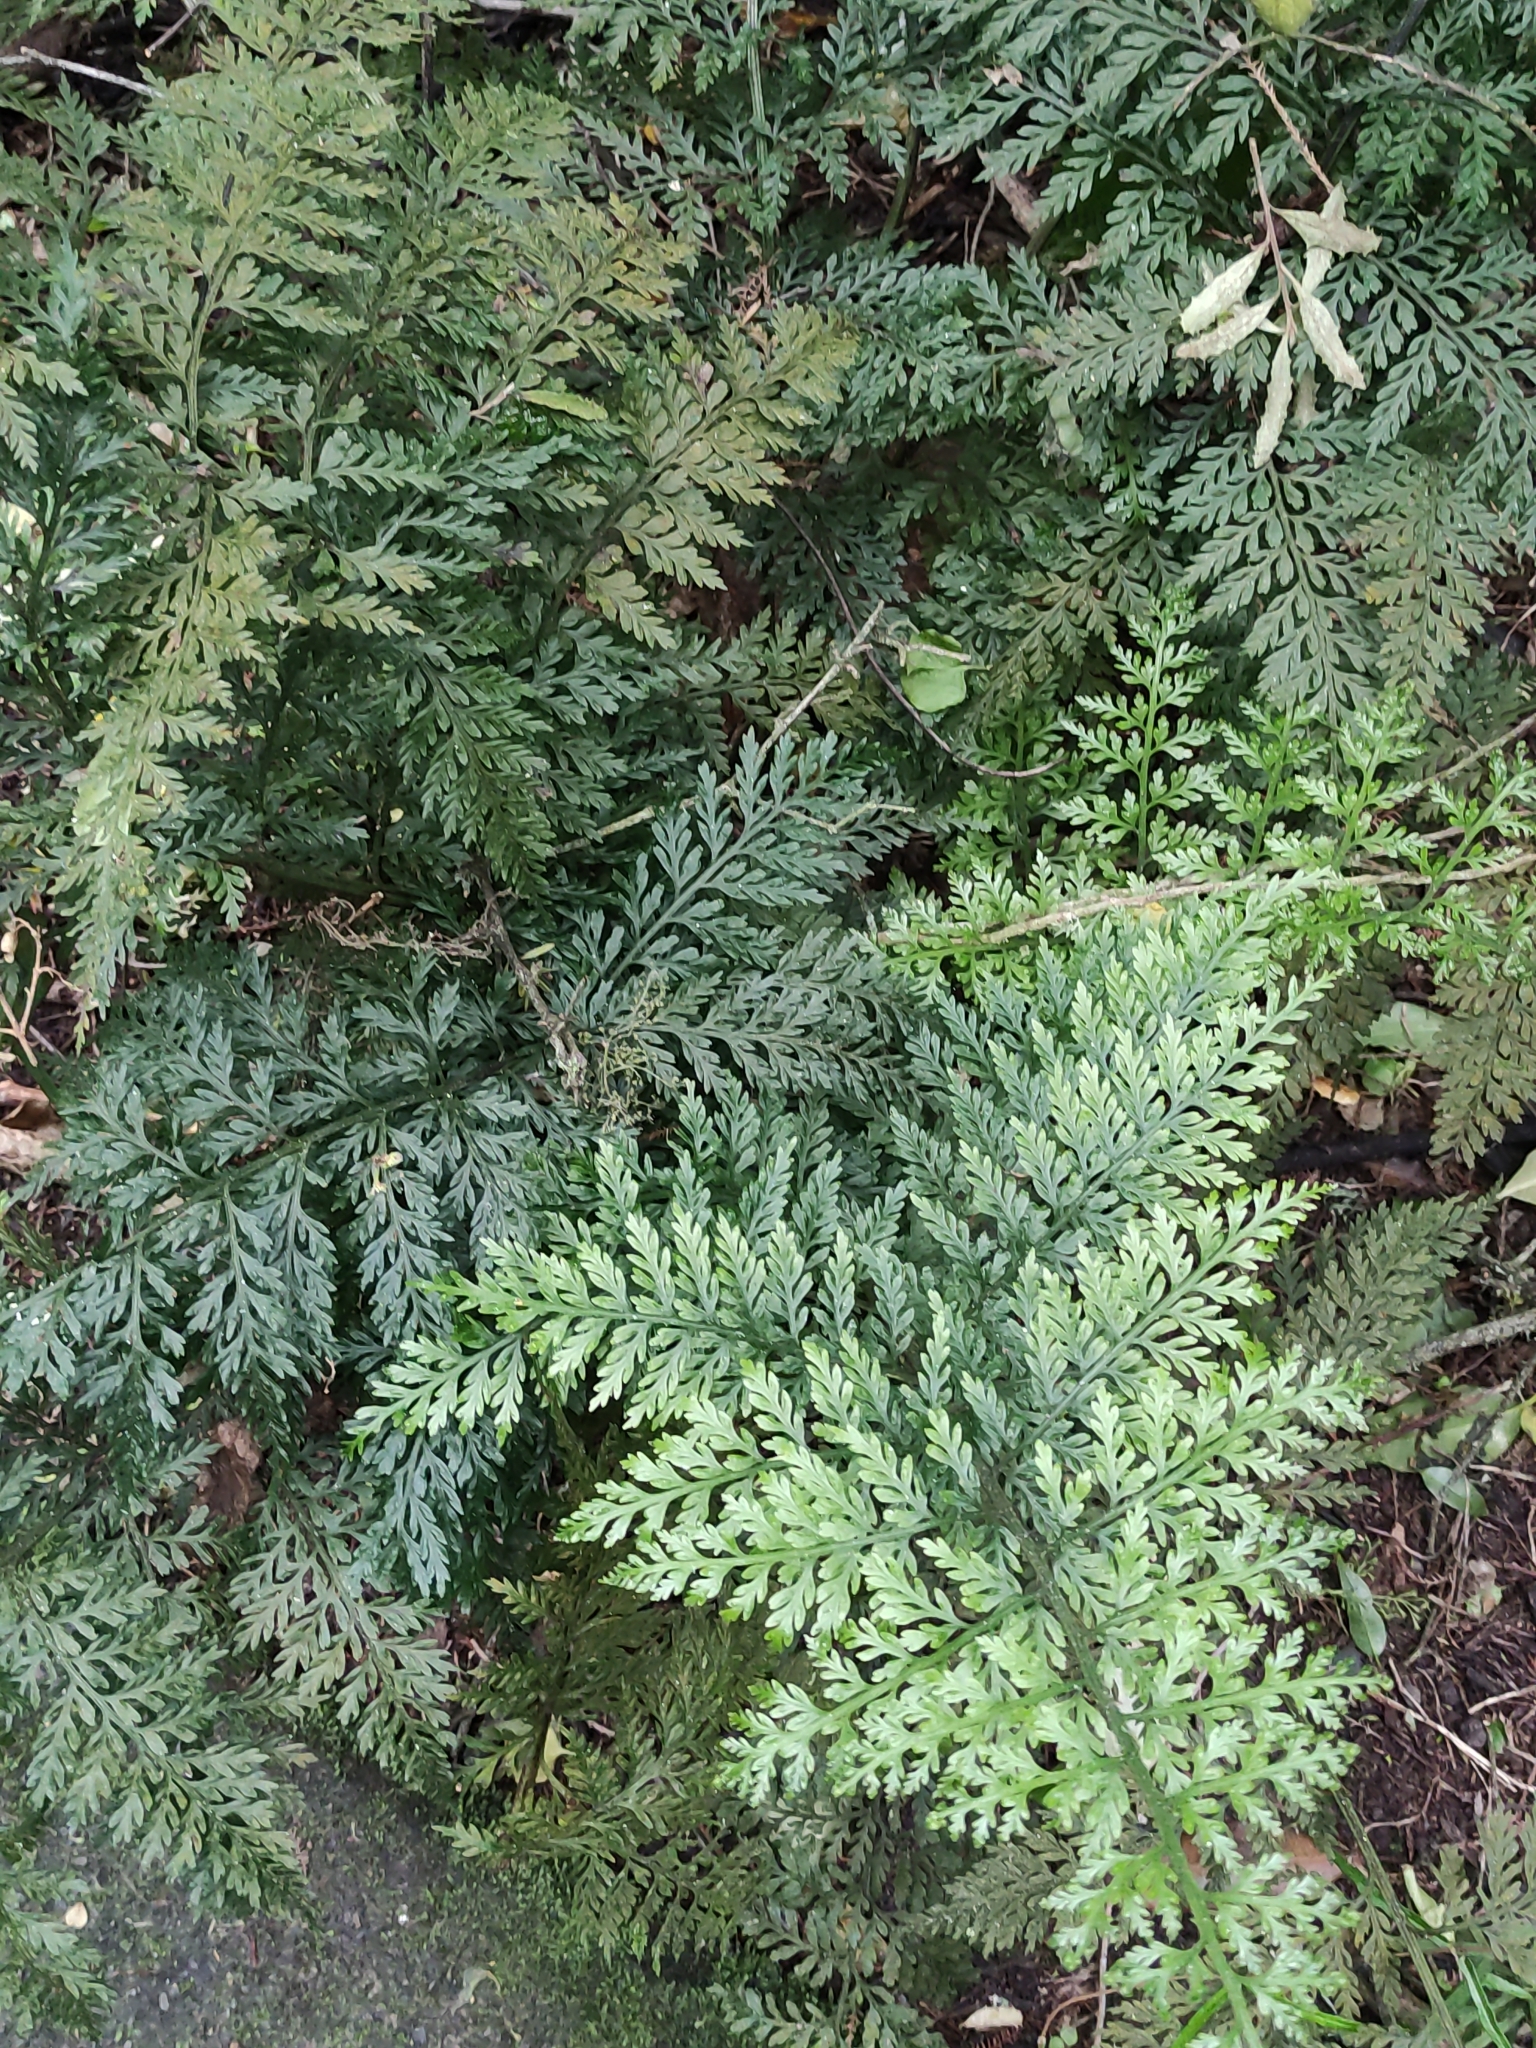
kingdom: Plantae
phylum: Tracheophyta
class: Polypodiopsida
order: Polypodiales
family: Aspleniaceae
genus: Asplenium
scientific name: Asplenium
